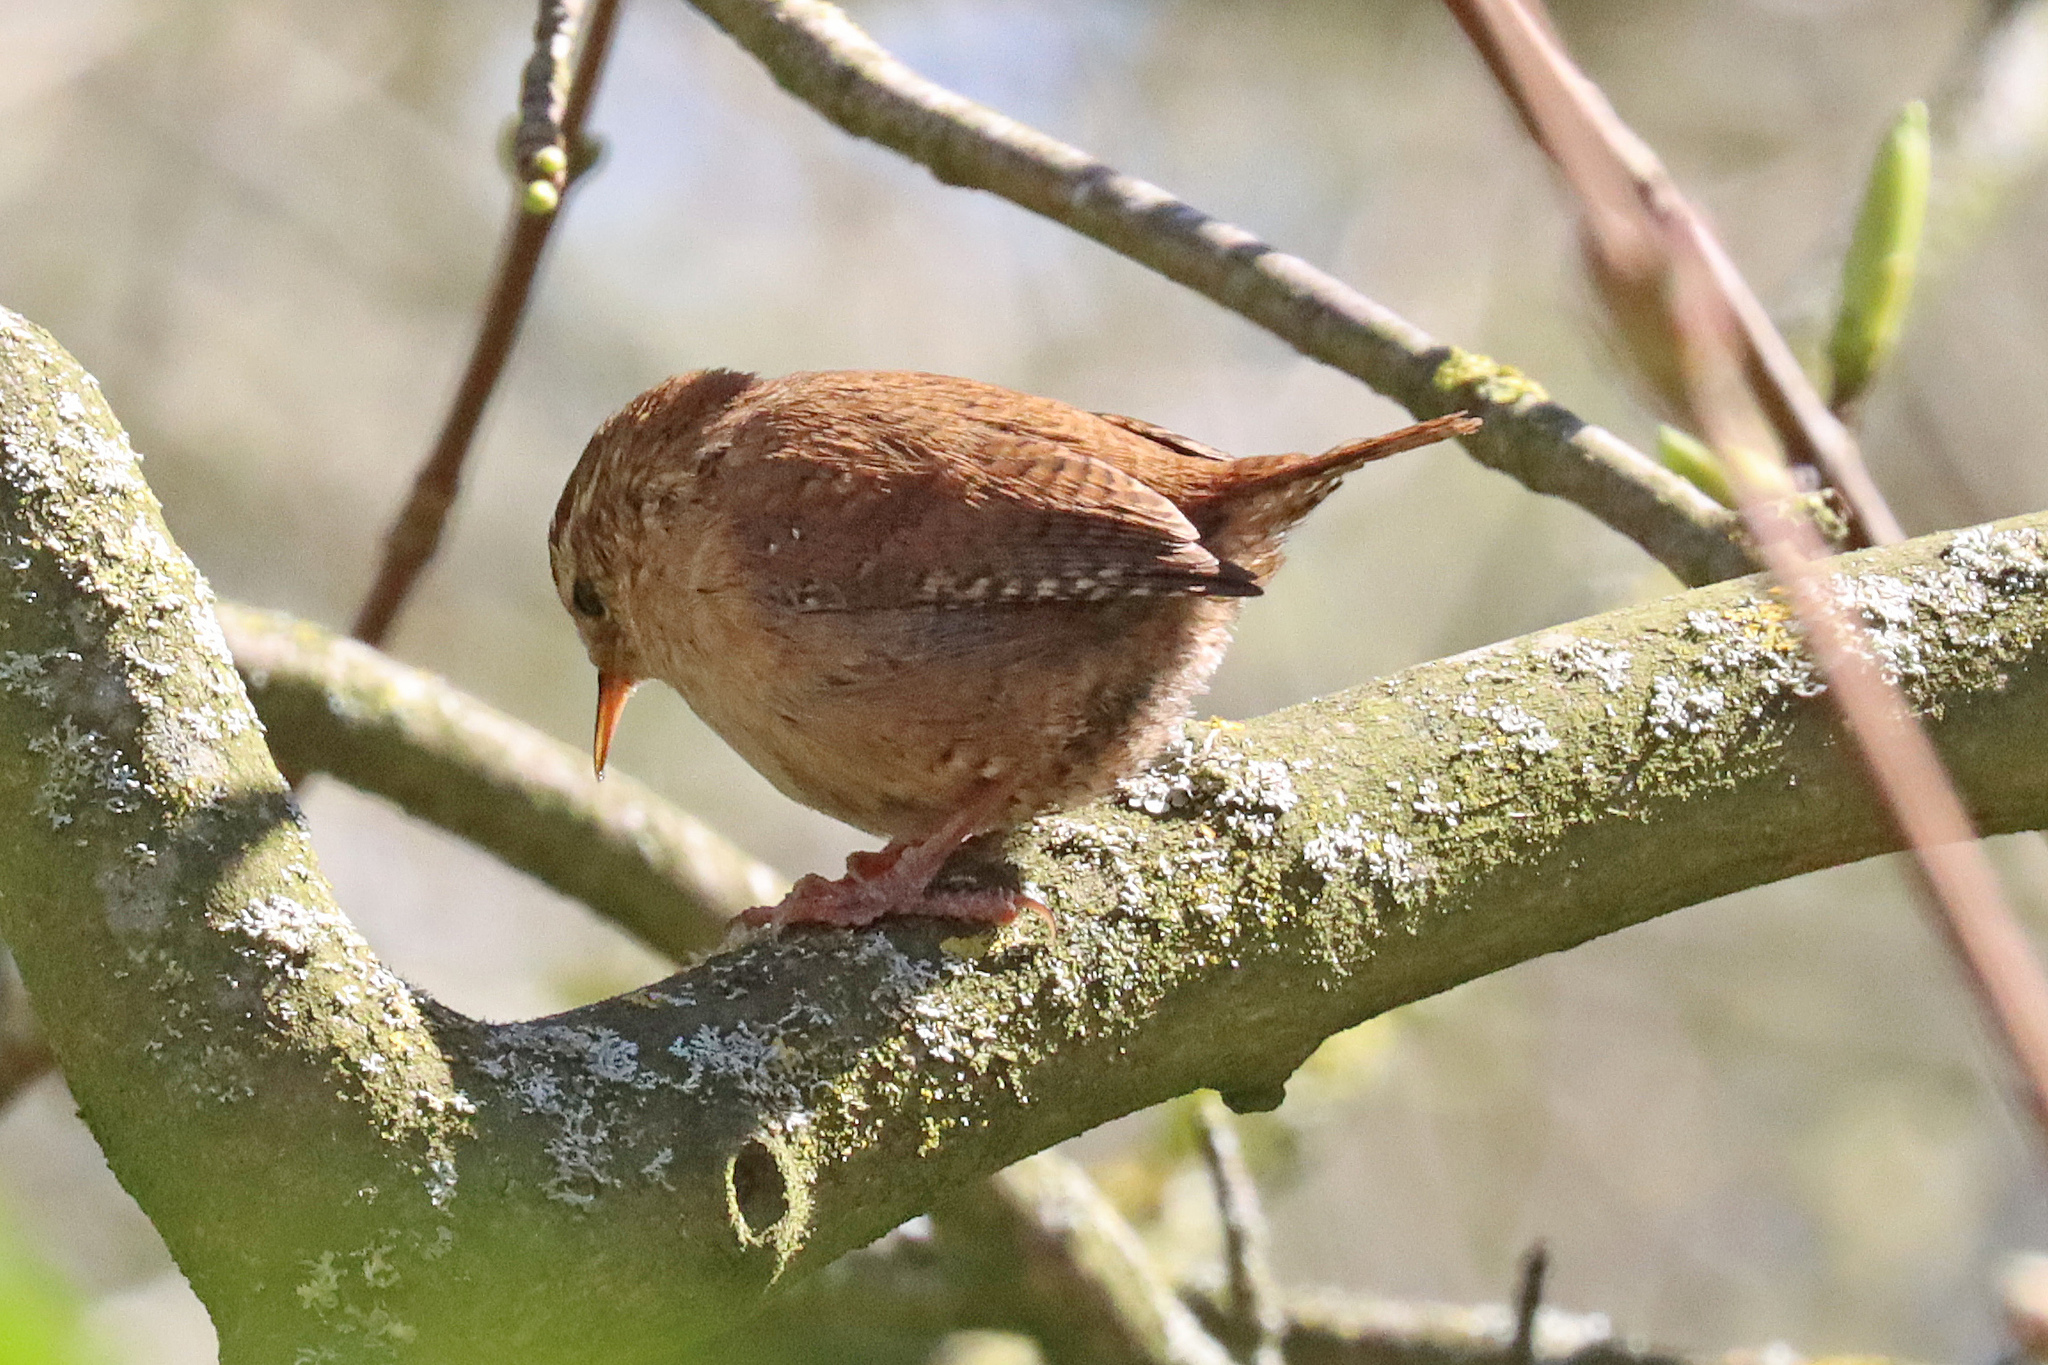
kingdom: Animalia
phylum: Chordata
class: Aves
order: Passeriformes
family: Troglodytidae
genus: Troglodytes
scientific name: Troglodytes troglodytes
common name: Eurasian wren
